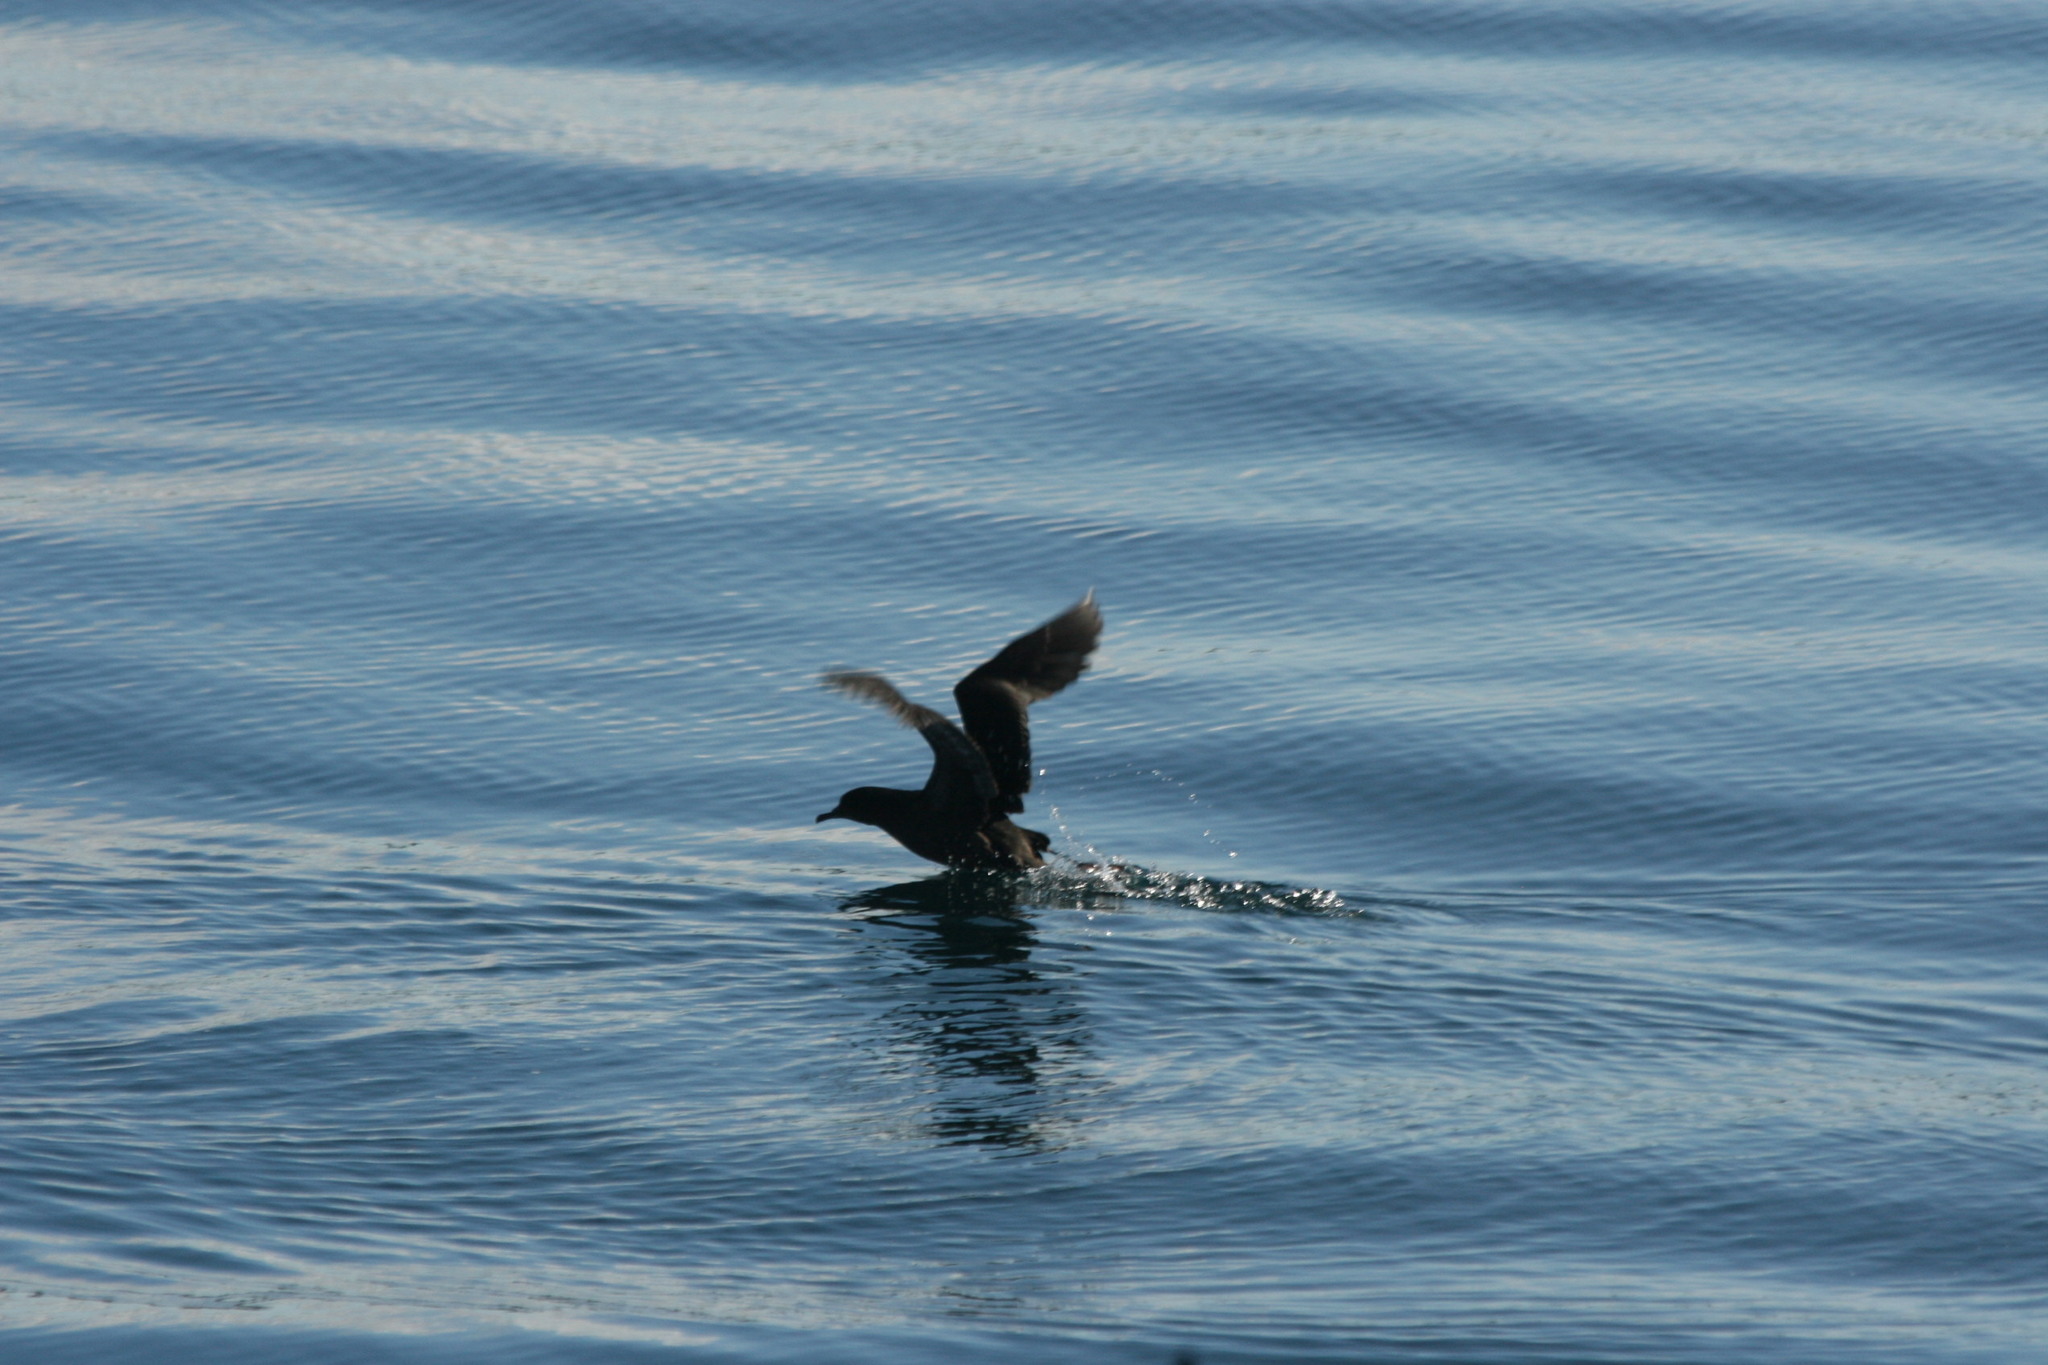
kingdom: Animalia
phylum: Chordata
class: Aves
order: Procellariiformes
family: Procellariidae
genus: Puffinus
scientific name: Puffinus griseus
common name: Sooty shearwater
